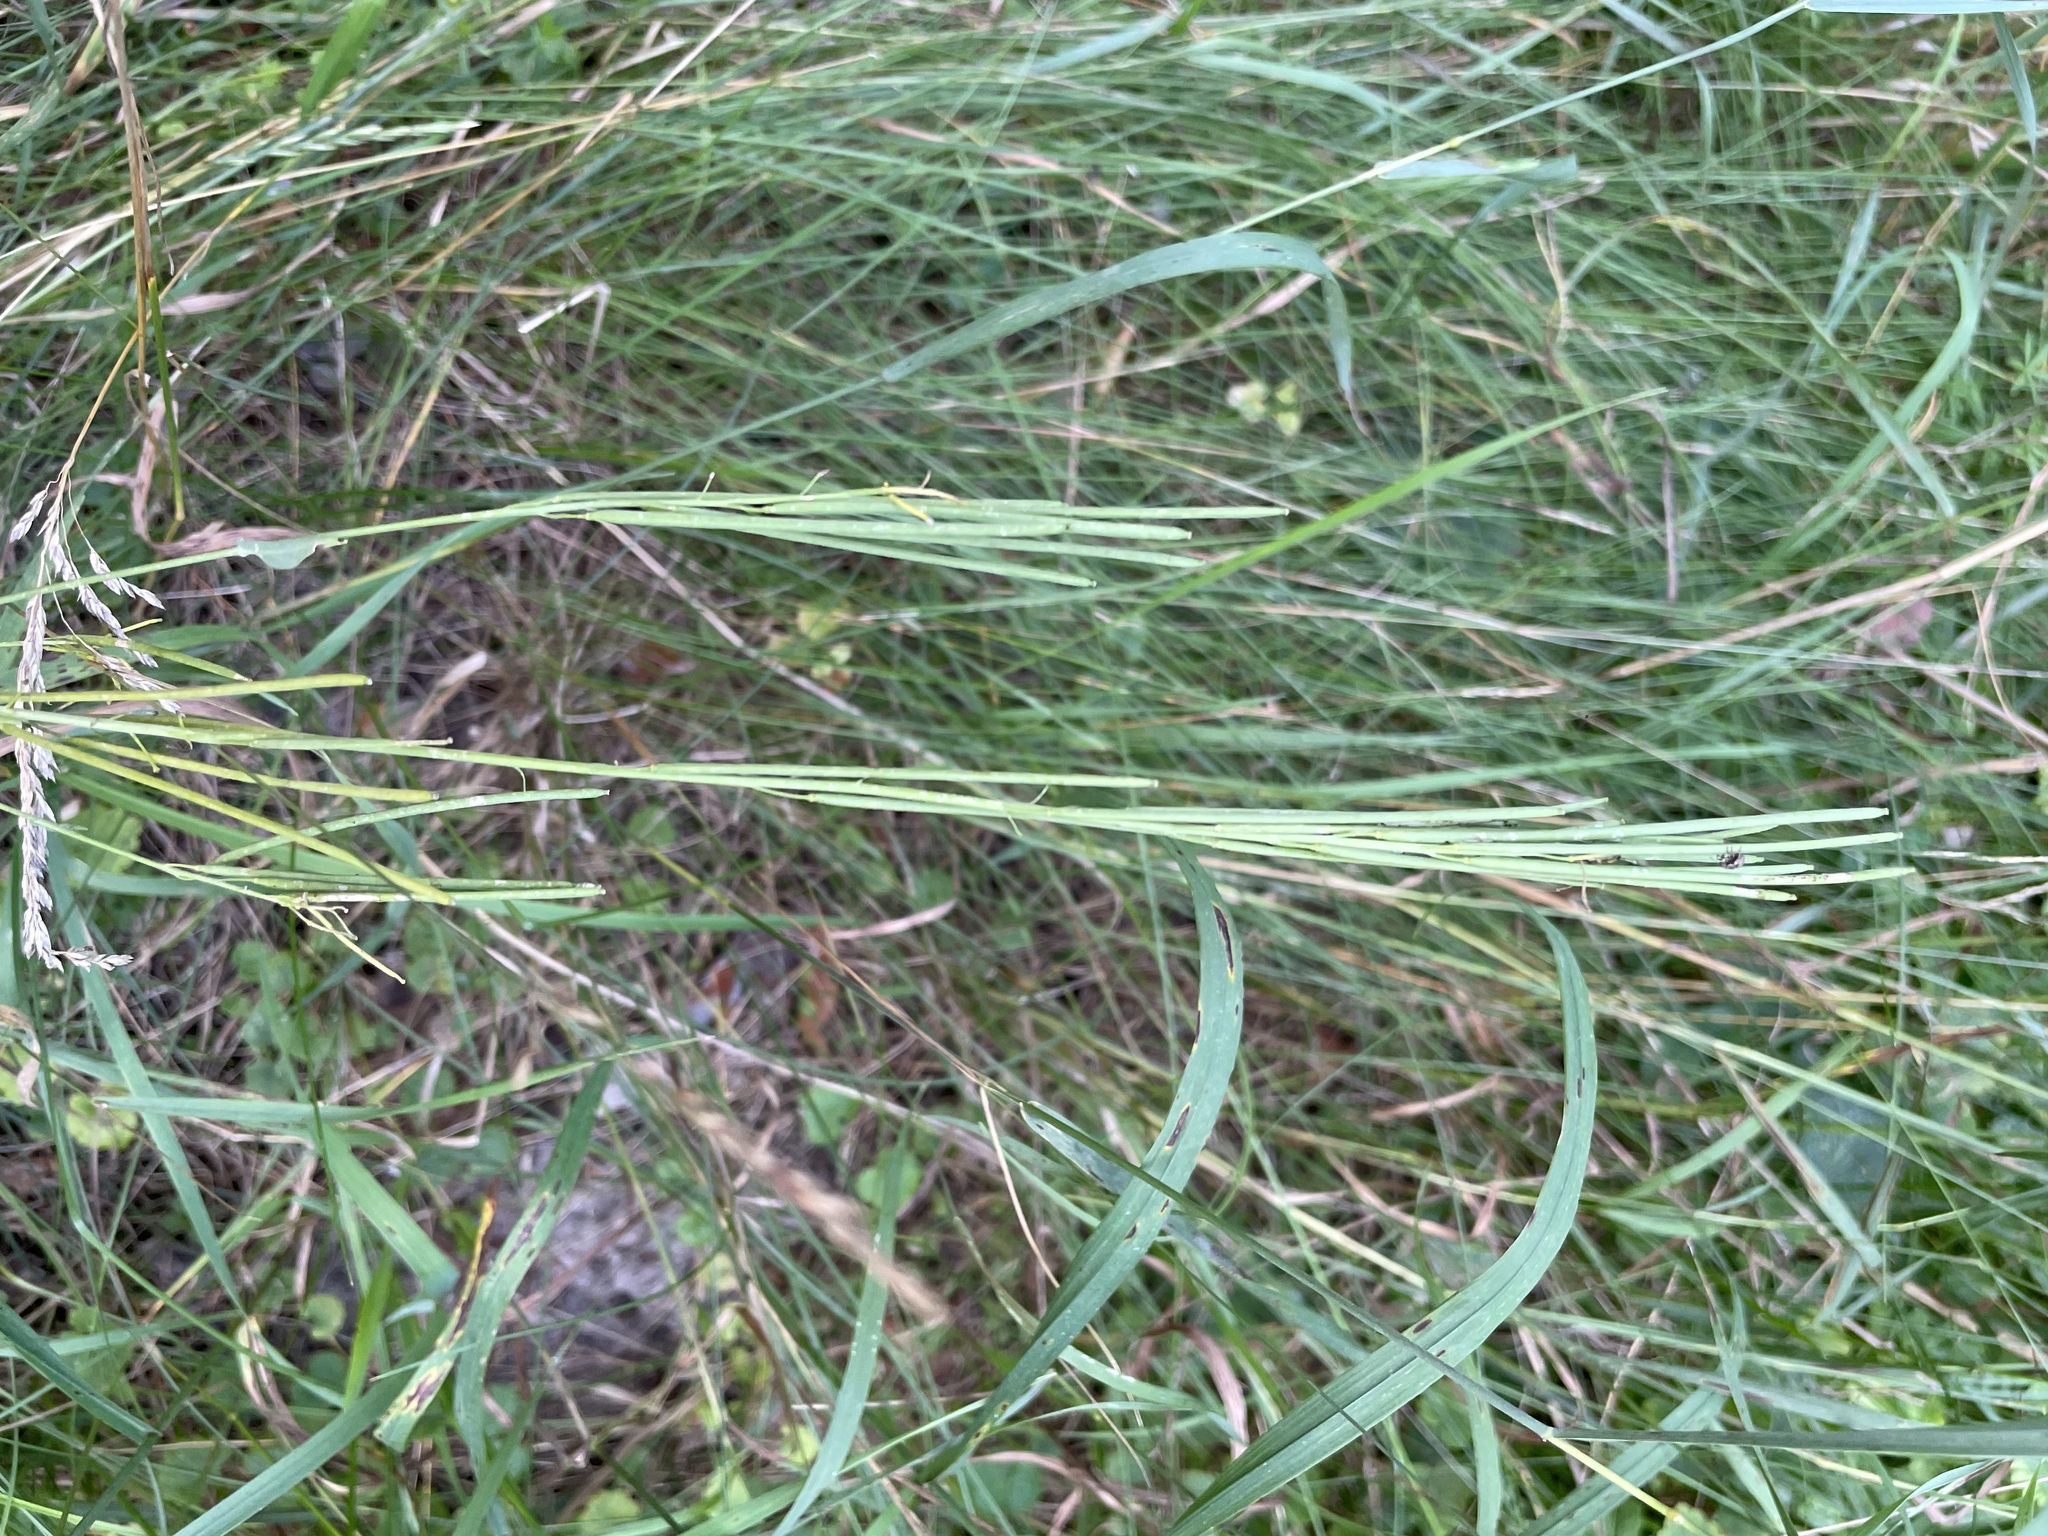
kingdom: Plantae
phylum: Tracheophyta
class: Magnoliopsida
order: Brassicales
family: Brassicaceae
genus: Turritis
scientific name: Turritis glabra
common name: Tower rockcress
